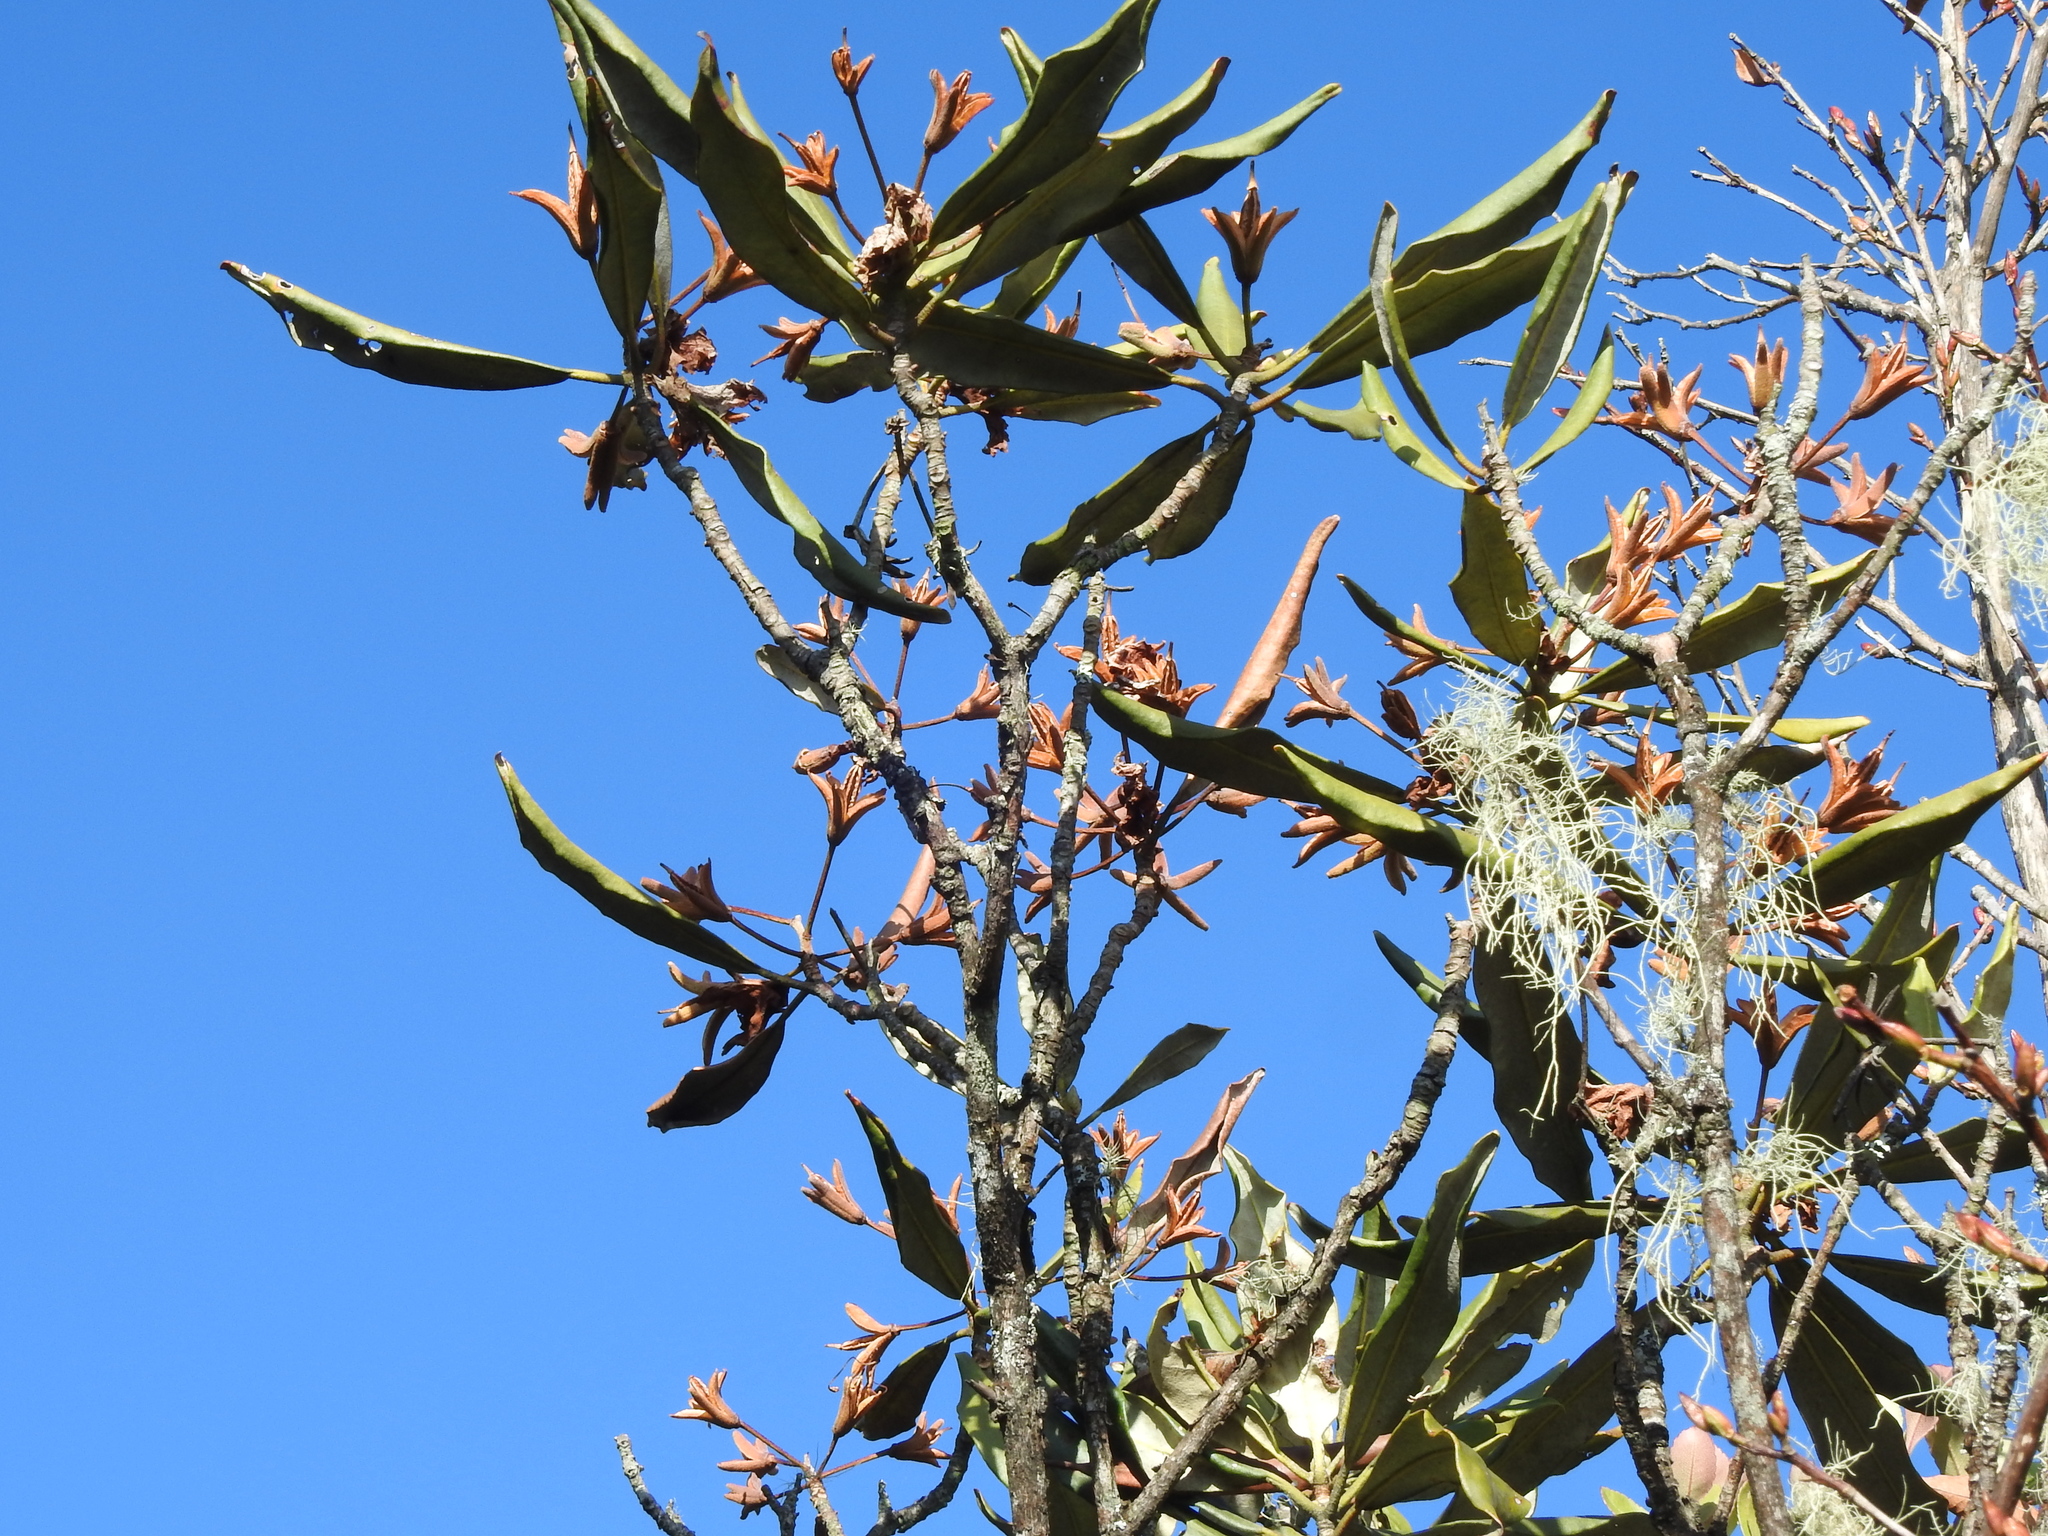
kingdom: Plantae
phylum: Tracheophyta
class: Magnoliopsida
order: Ericales
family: Ericaceae
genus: Rhododendron
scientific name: Rhododendron formosanum
